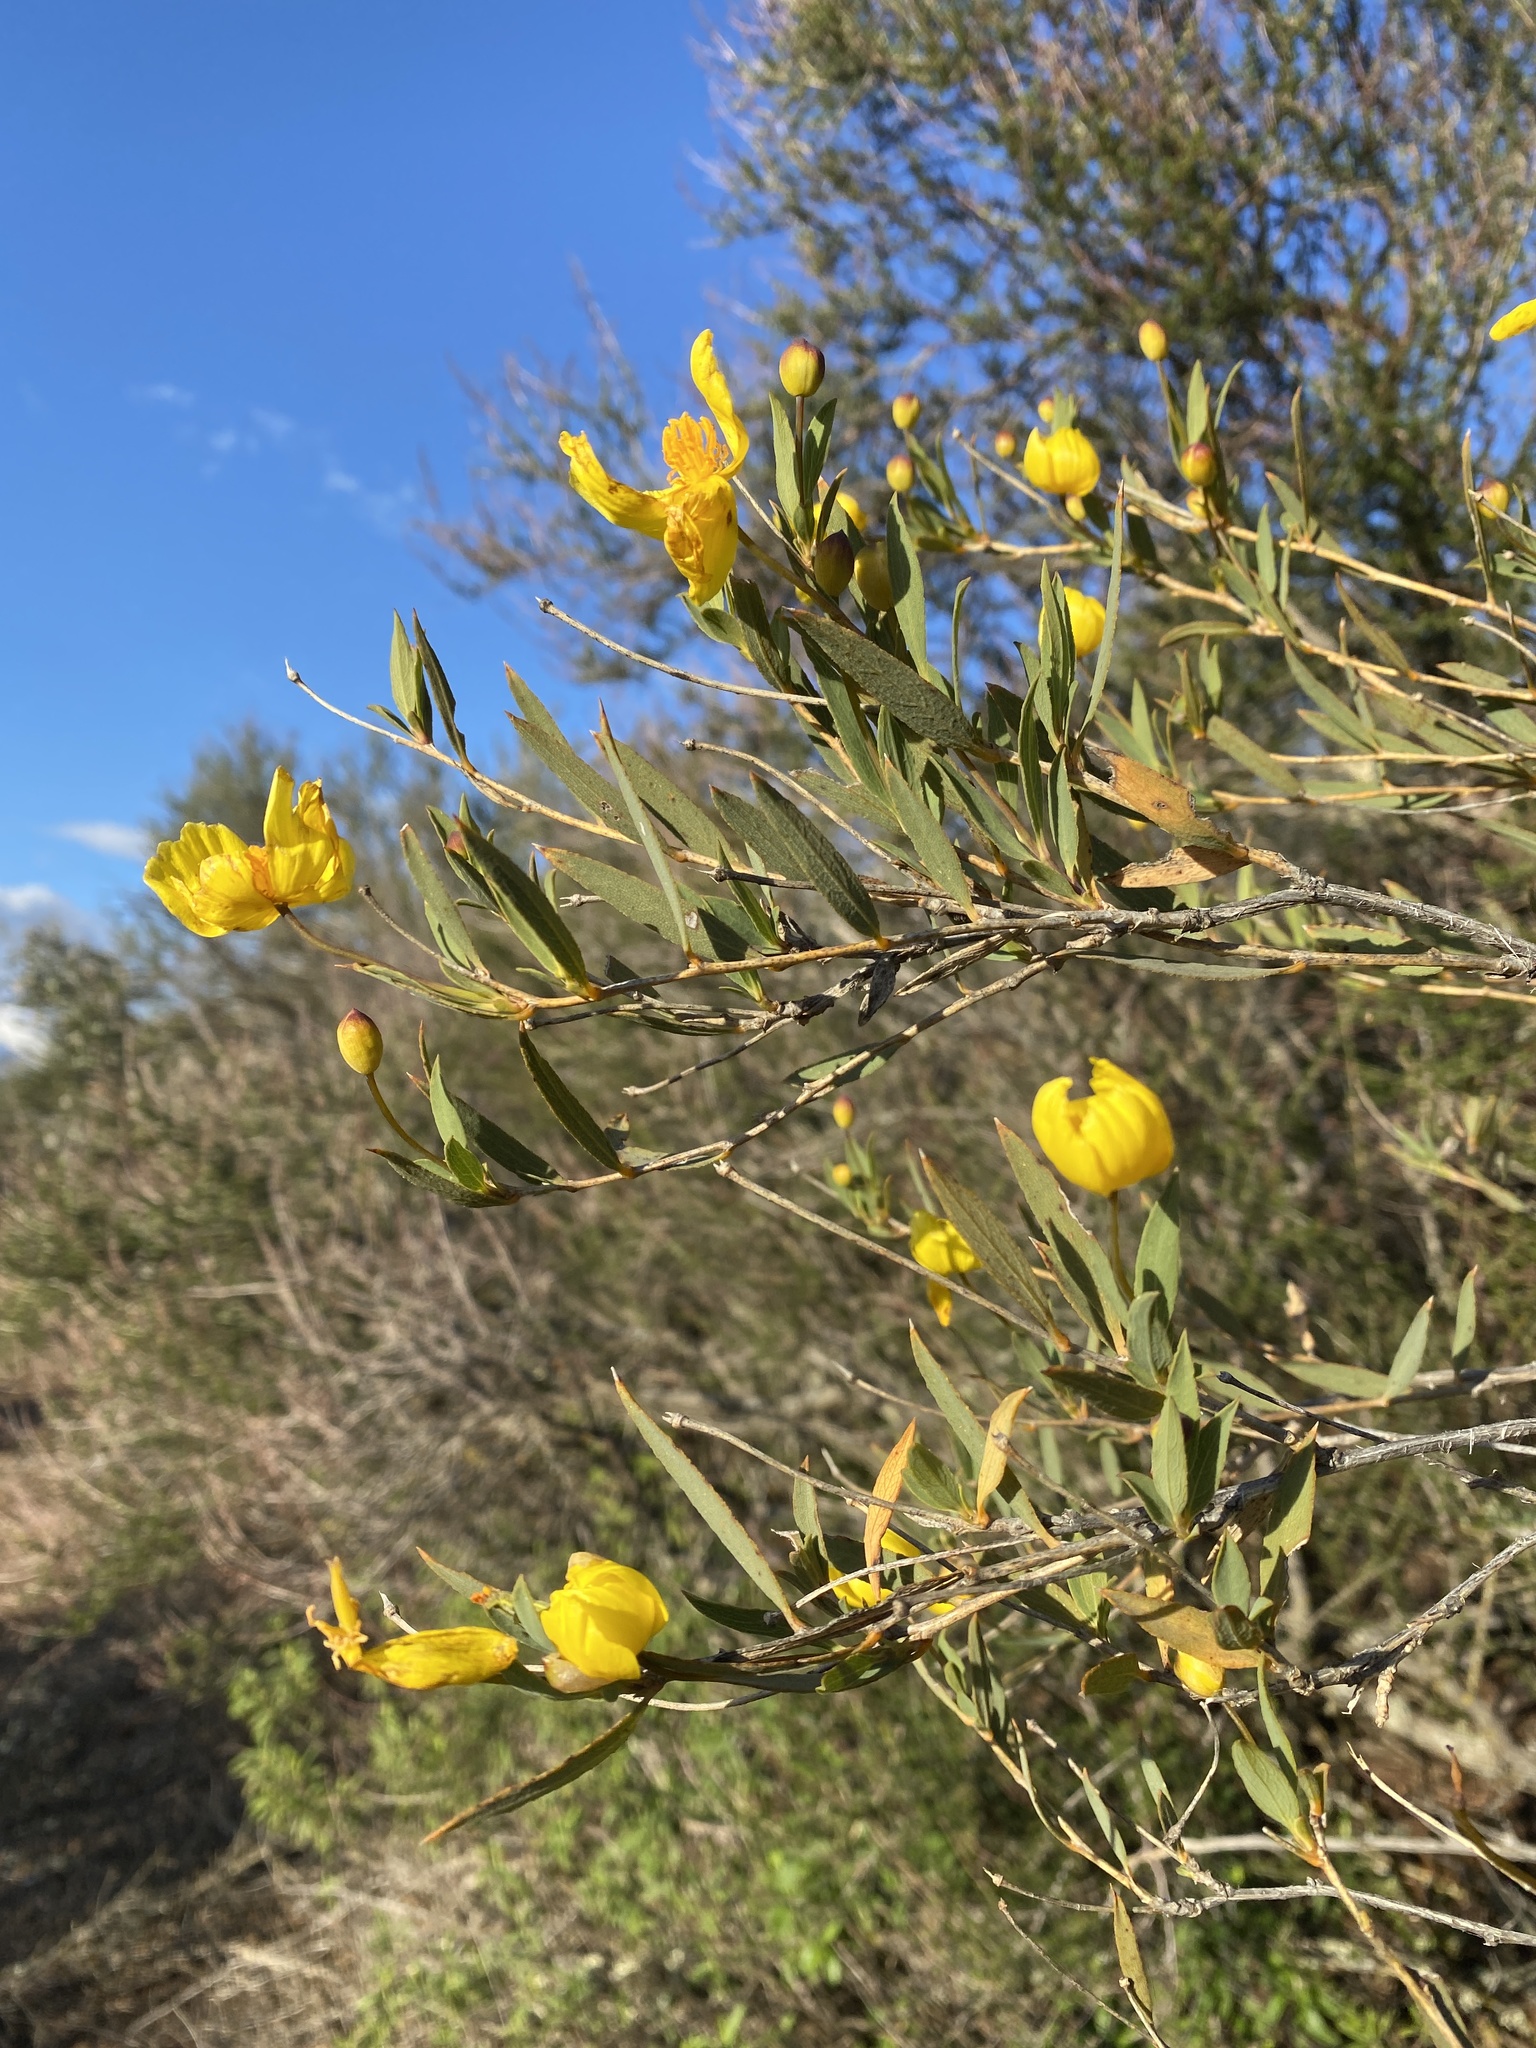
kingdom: Plantae
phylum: Tracheophyta
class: Magnoliopsida
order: Ranunculales
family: Papaveraceae
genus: Dendromecon
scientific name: Dendromecon rigida
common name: Tree poppy
